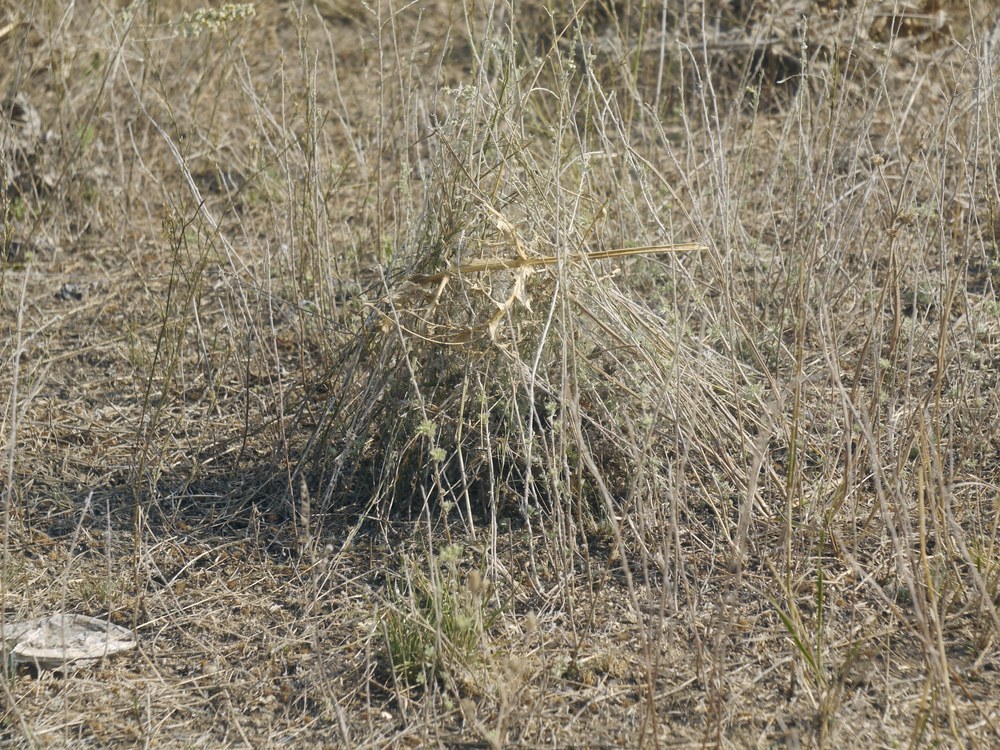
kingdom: Animalia
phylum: Arthropoda
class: Arachnida
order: Araneae
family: Theridiidae
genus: Latrodectus
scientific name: Latrodectus tredecimguttatus
